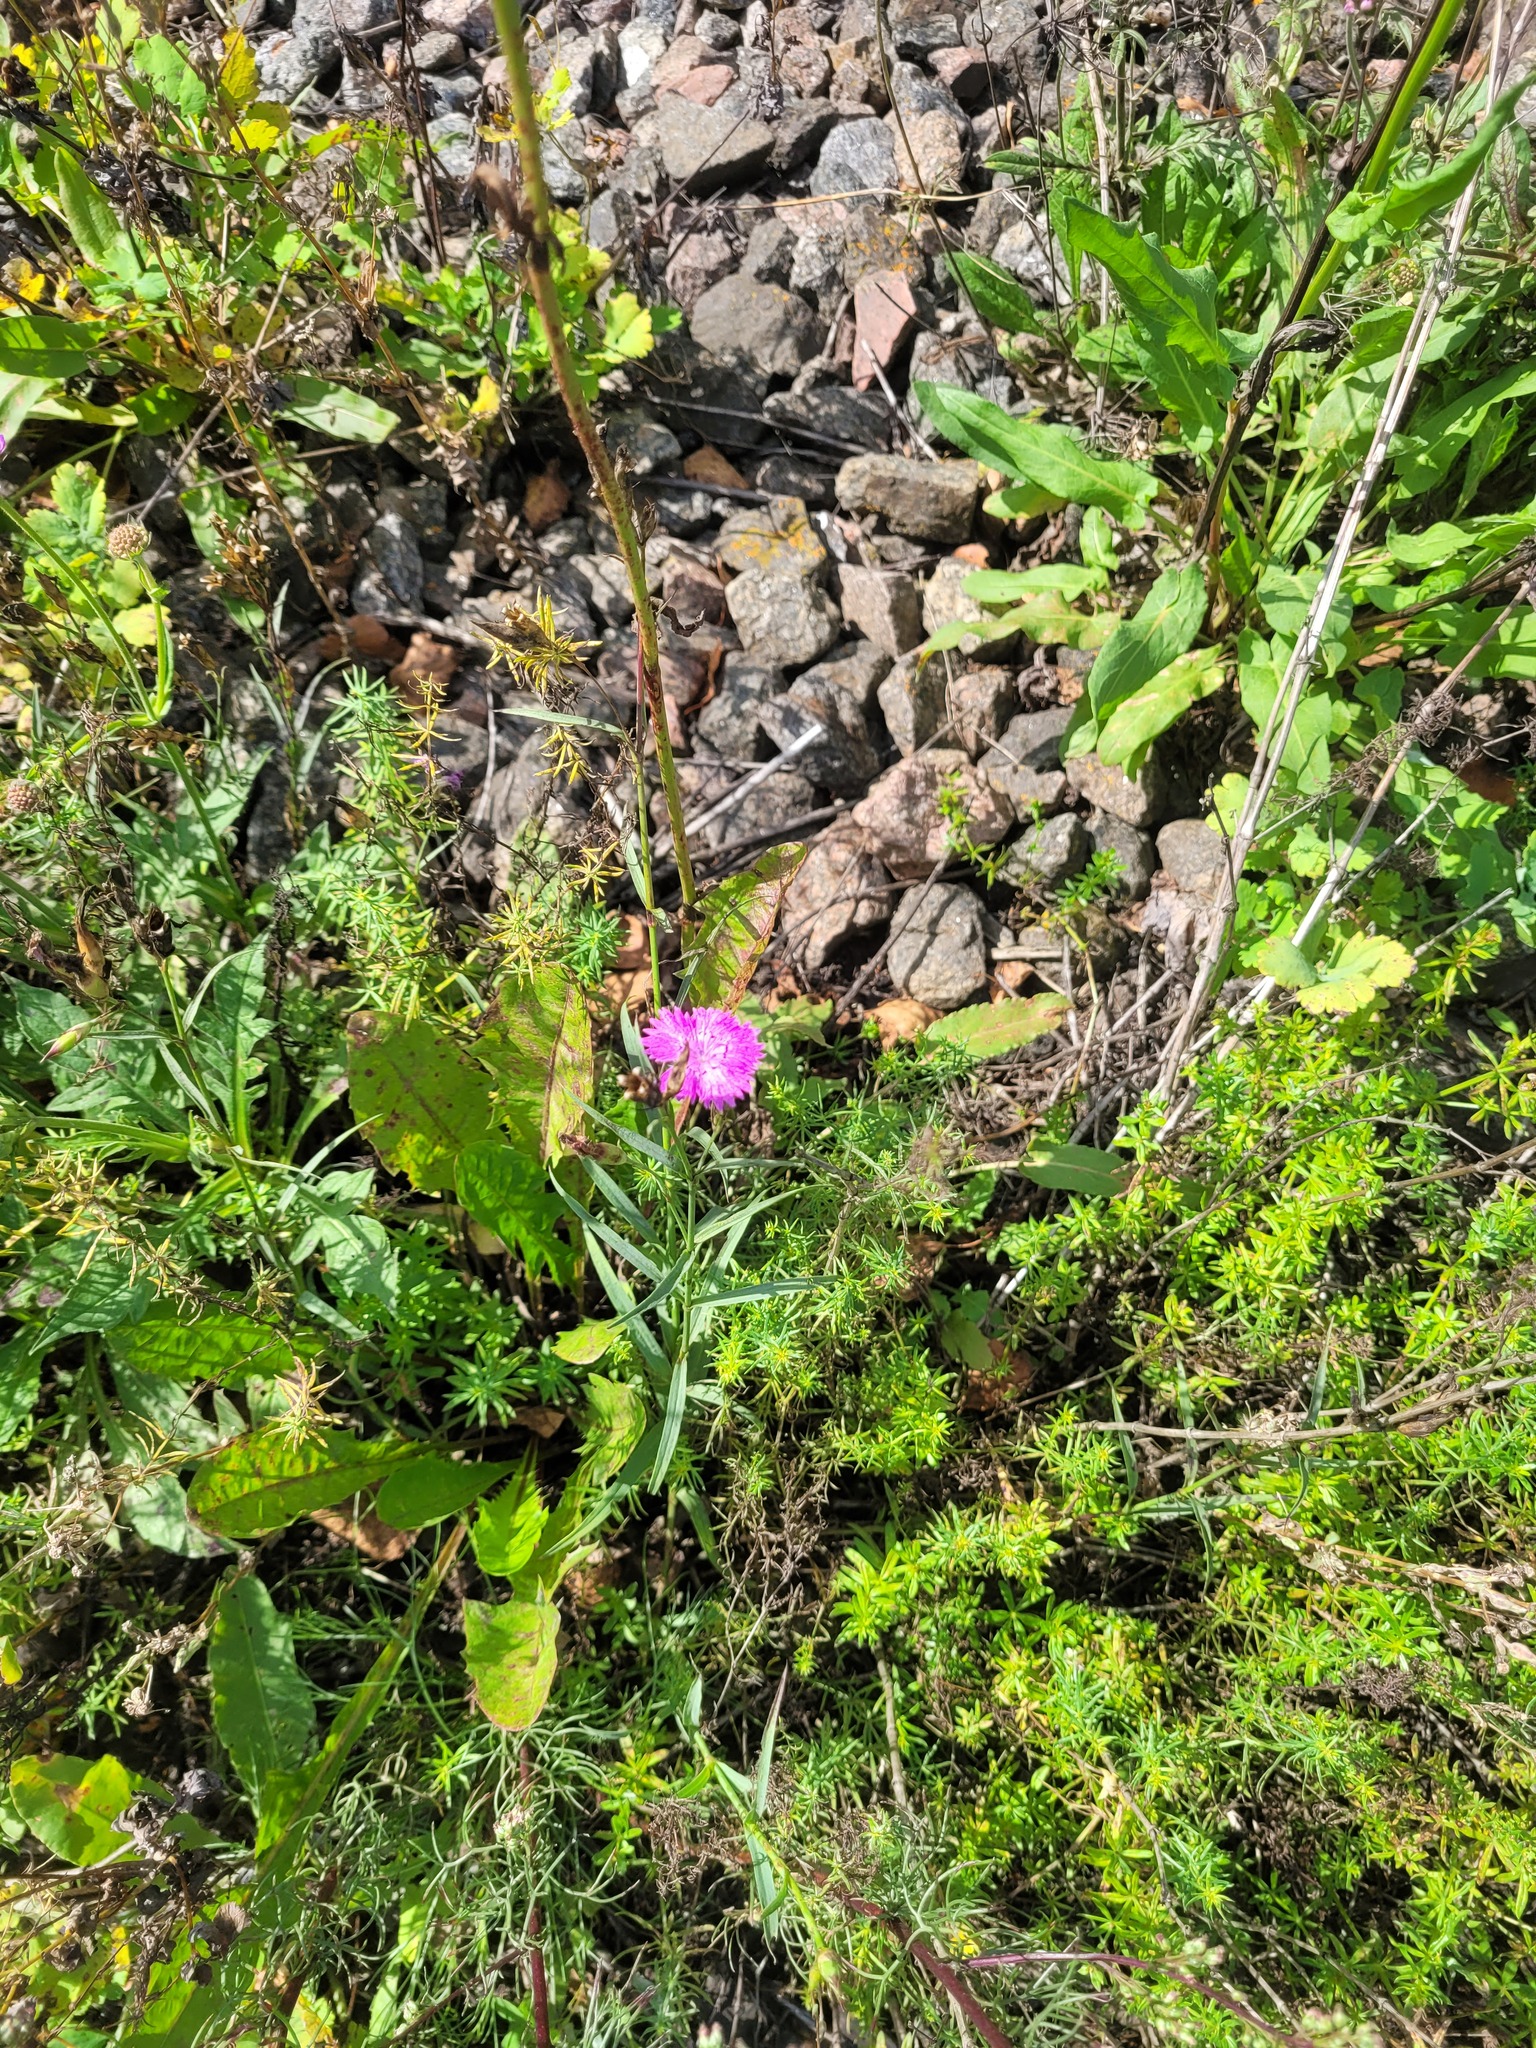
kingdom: Plantae
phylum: Tracheophyta
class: Magnoliopsida
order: Caryophyllales
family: Caryophyllaceae
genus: Dianthus
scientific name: Dianthus chinensis
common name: Rainbow pink
